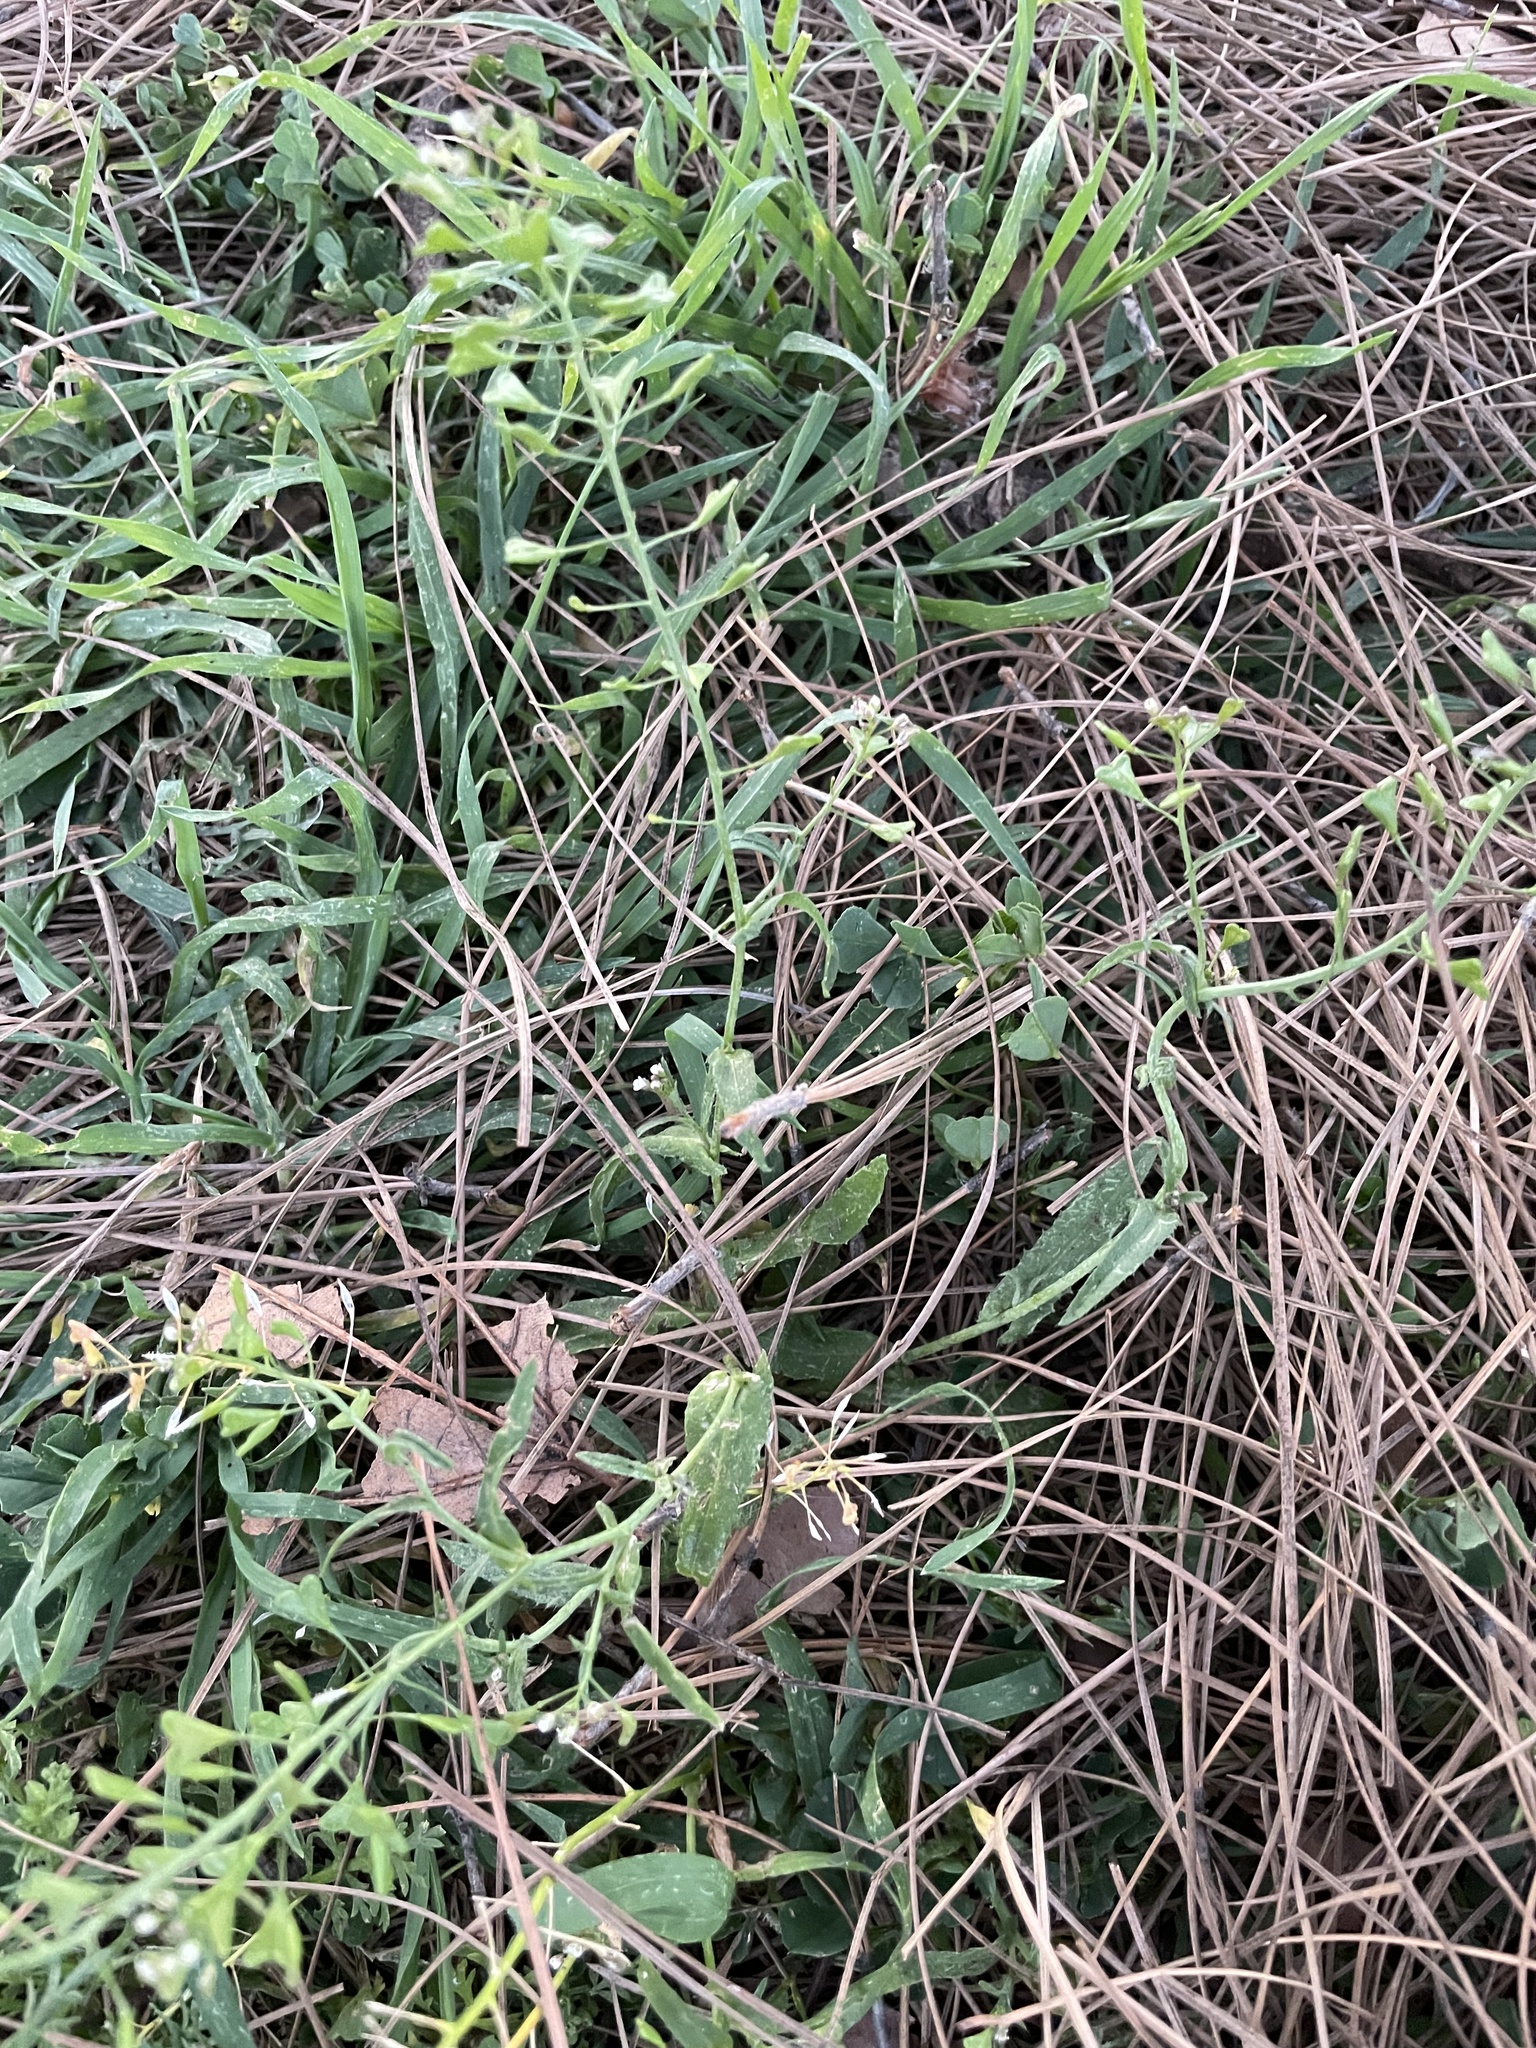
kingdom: Plantae
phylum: Tracheophyta
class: Magnoliopsida
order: Brassicales
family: Brassicaceae
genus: Capsella
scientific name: Capsella bursa-pastoris
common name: Shepherd's purse
